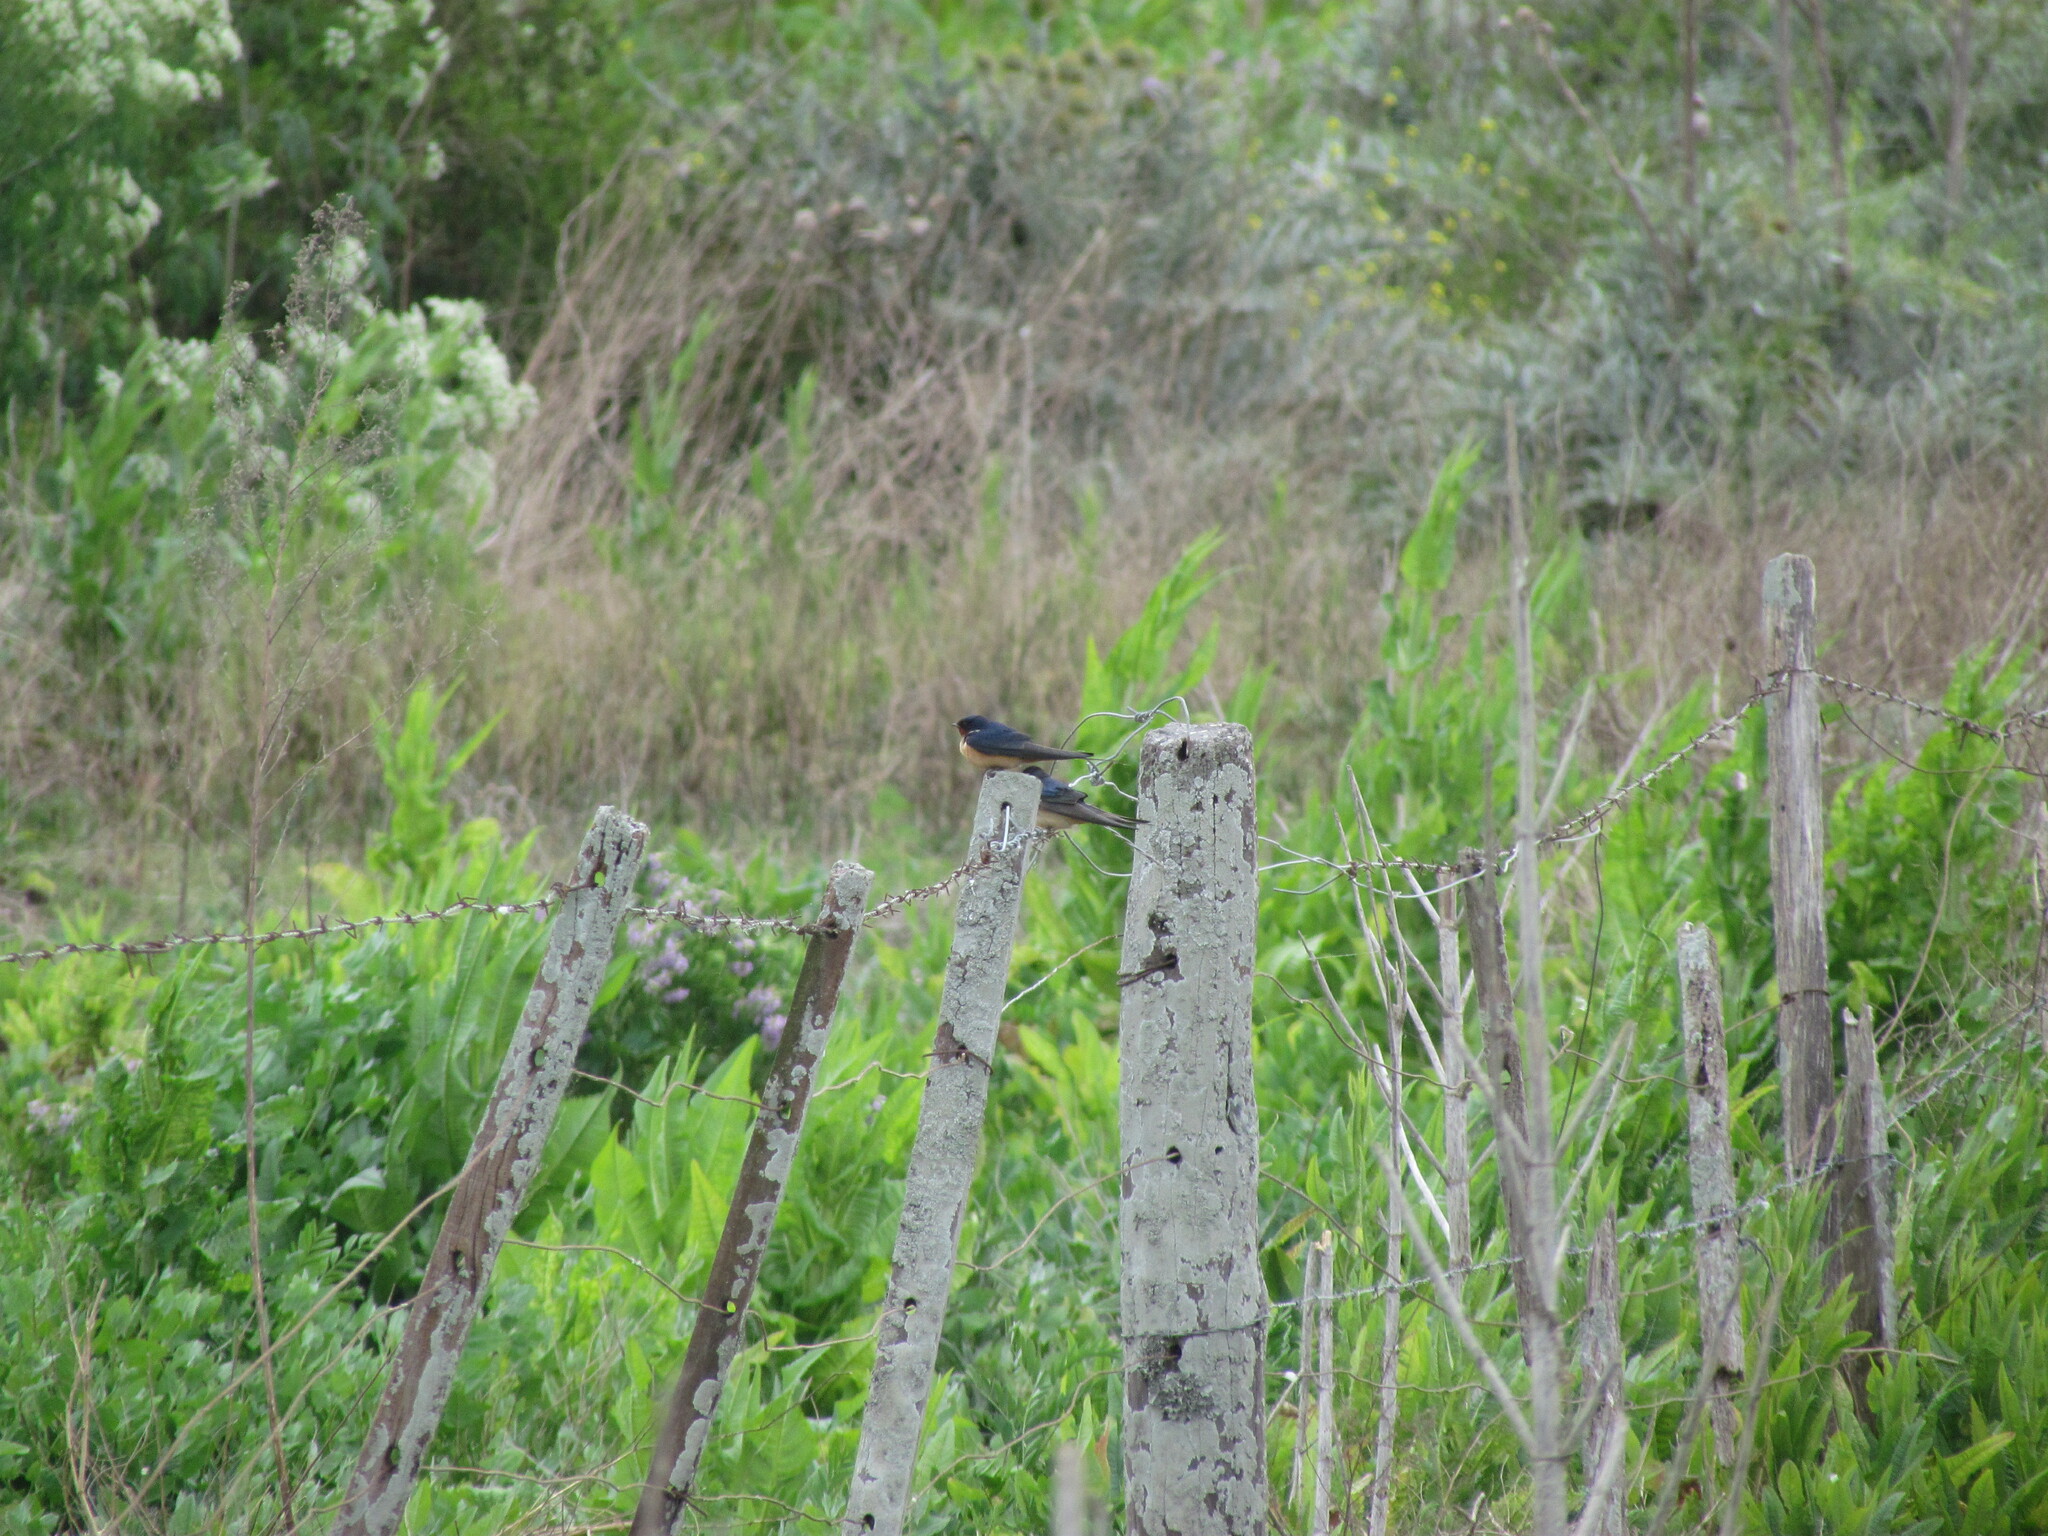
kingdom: Animalia
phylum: Chordata
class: Aves
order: Passeriformes
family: Hirundinidae
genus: Hirundo
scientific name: Hirundo rustica
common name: Barn swallow
